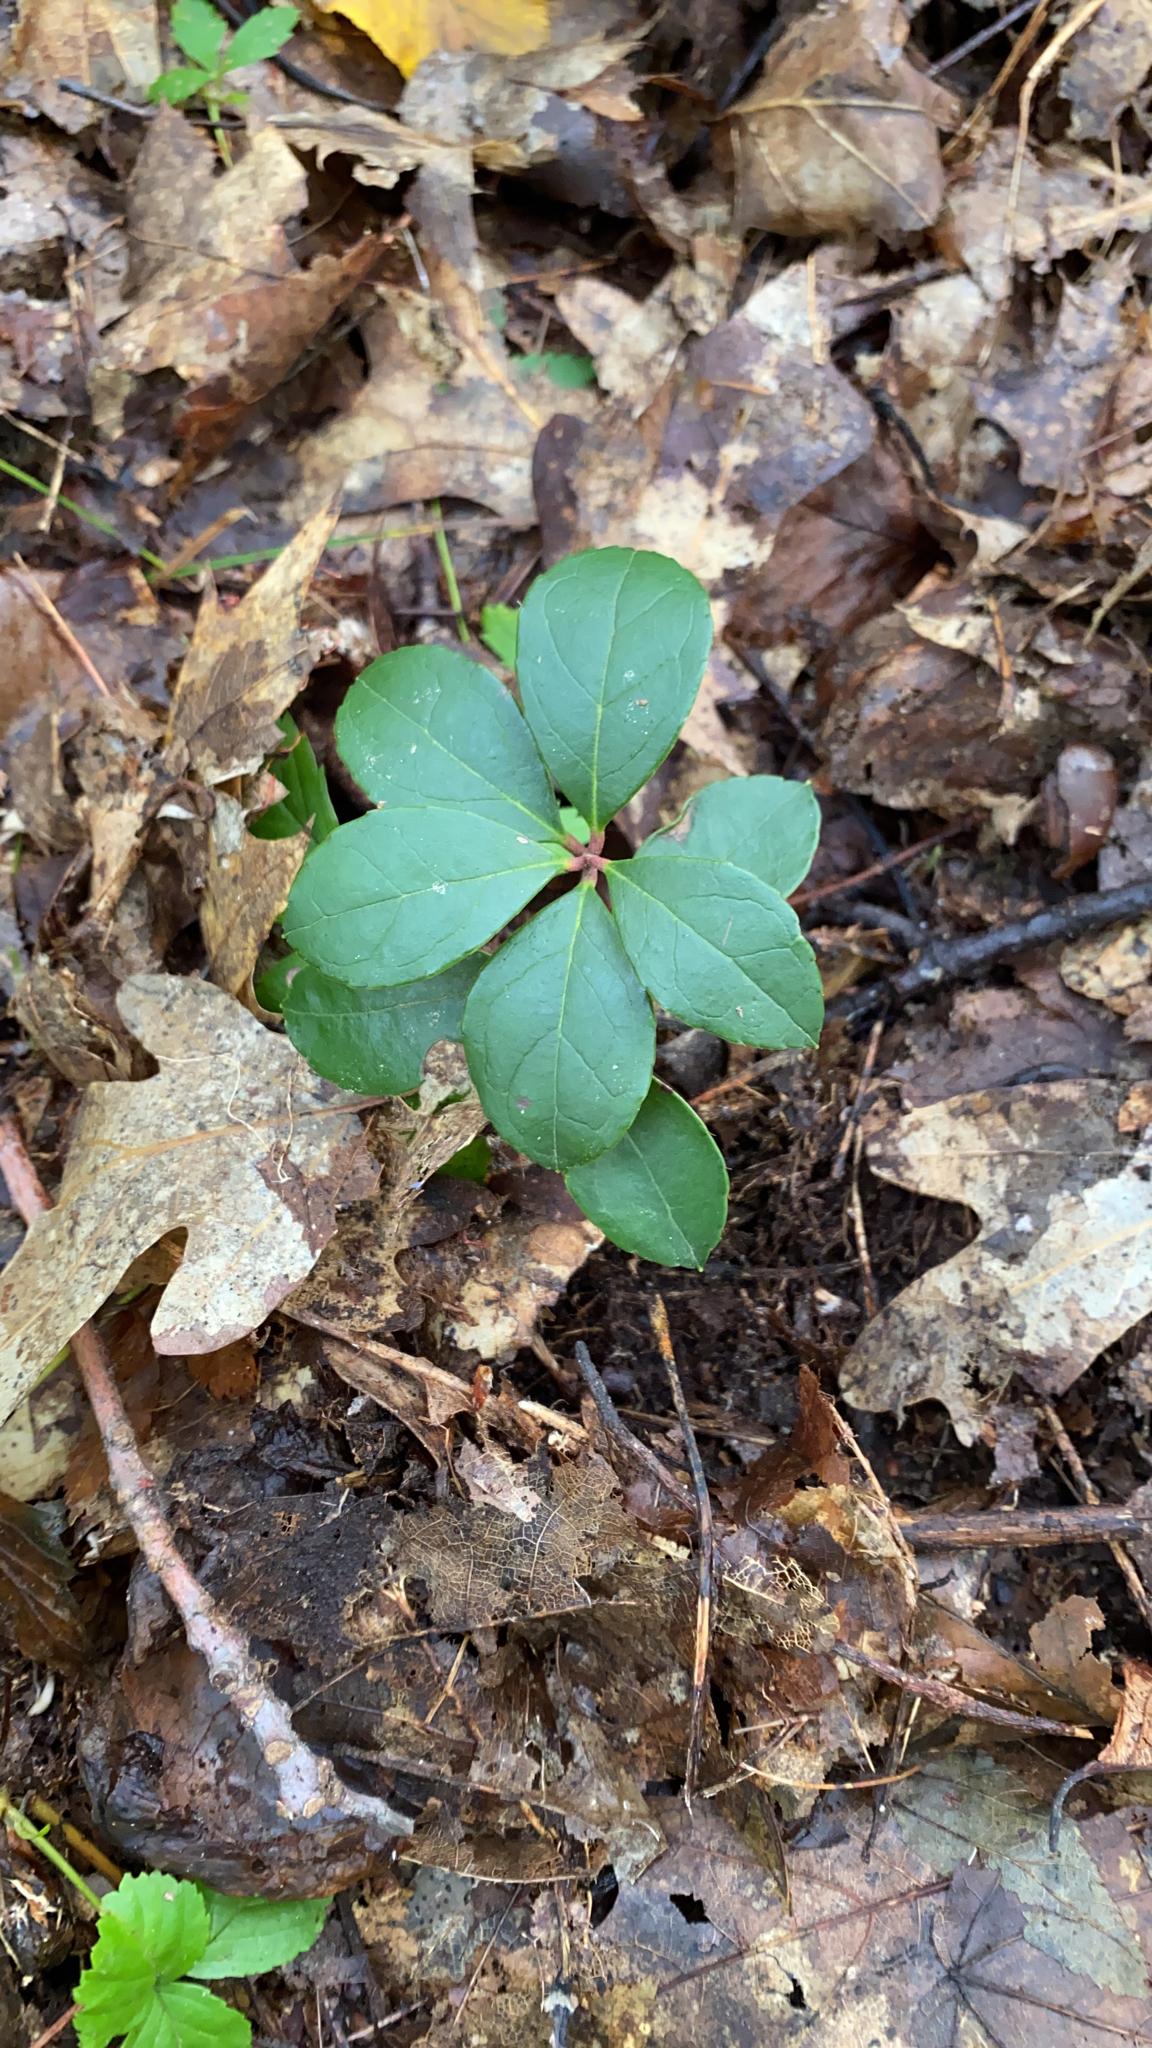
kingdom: Plantae
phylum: Tracheophyta
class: Magnoliopsida
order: Ericales
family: Ericaceae
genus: Gaultheria
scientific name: Gaultheria procumbens
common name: Checkerberry
